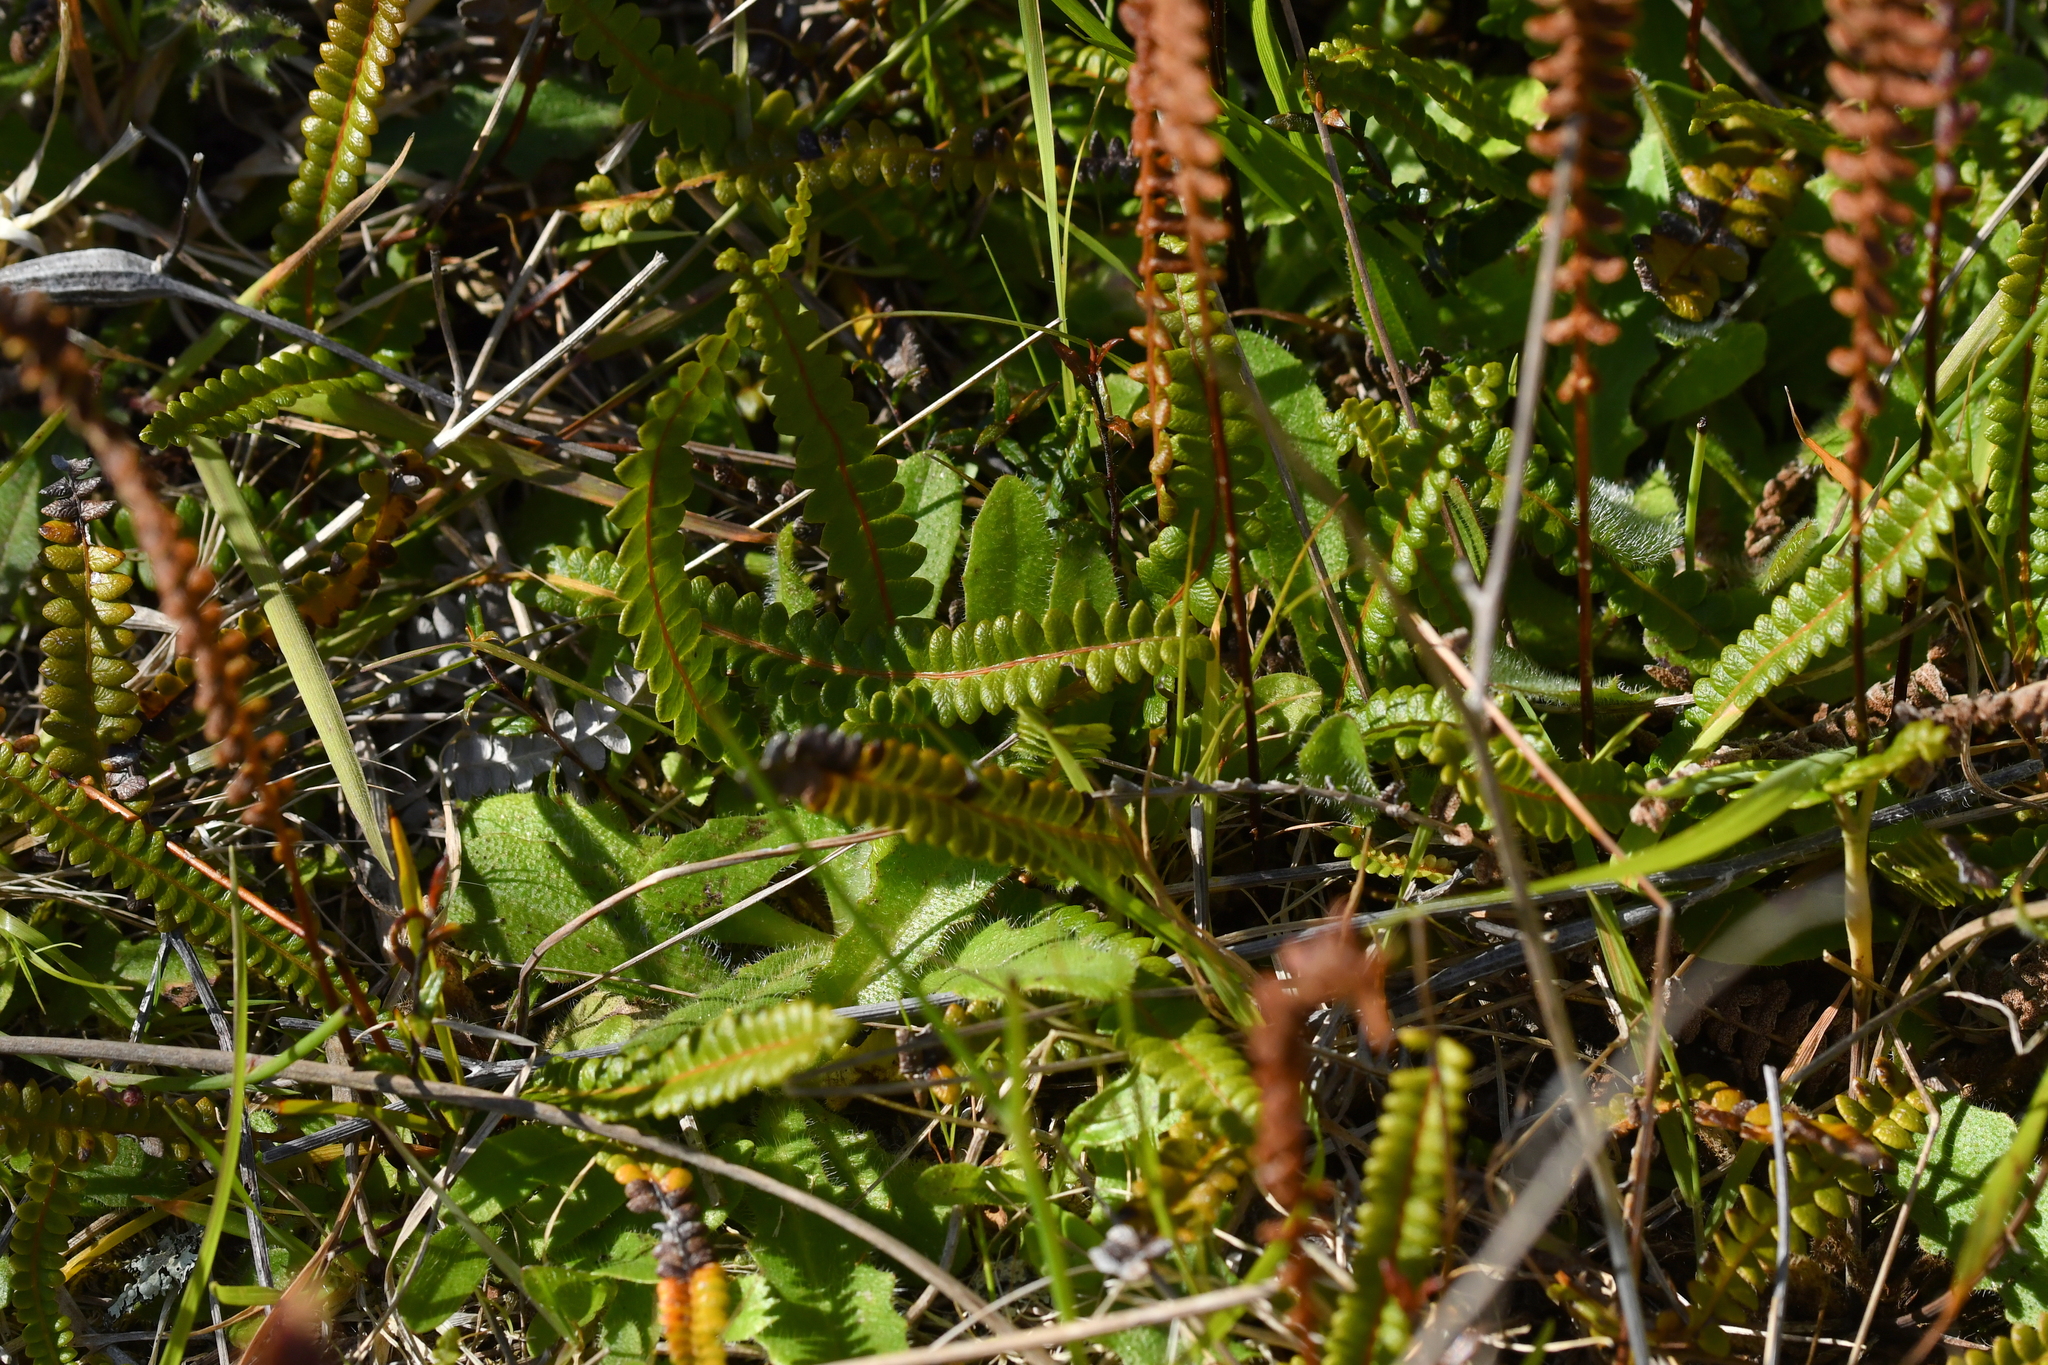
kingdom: Plantae
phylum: Tracheophyta
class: Polypodiopsida
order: Polypodiales
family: Blechnaceae
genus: Austroblechnum
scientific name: Austroblechnum penna-marina
